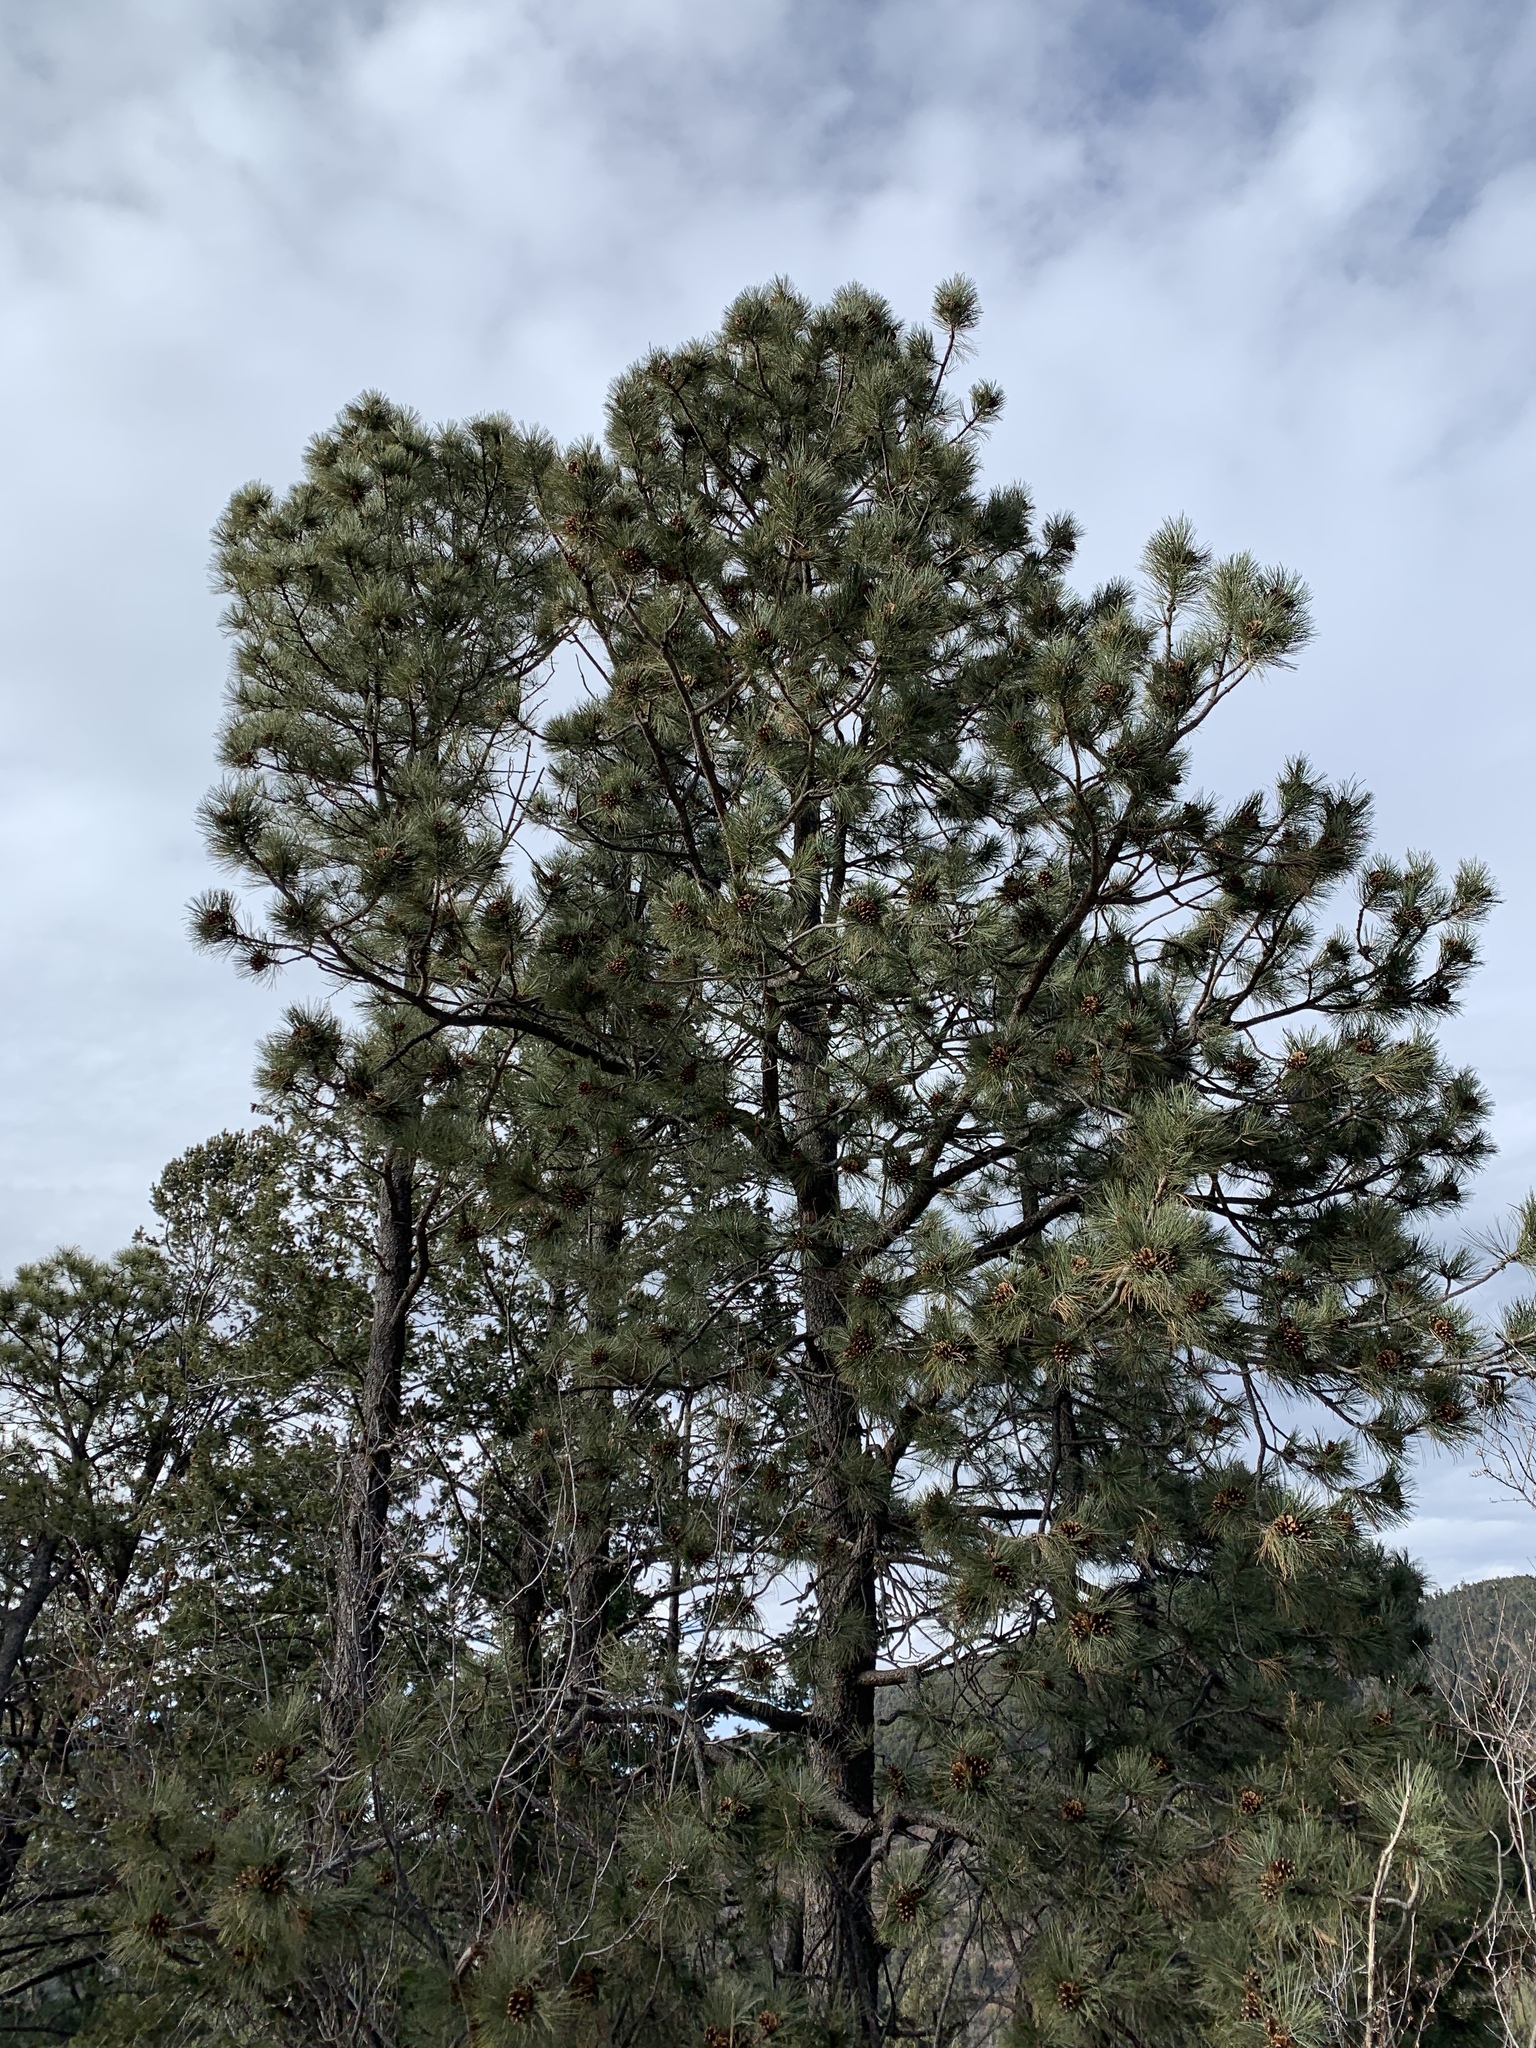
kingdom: Plantae
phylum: Tracheophyta
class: Pinopsida
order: Pinales
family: Pinaceae
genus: Pinus
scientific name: Pinus ponderosa
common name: Western yellow-pine
